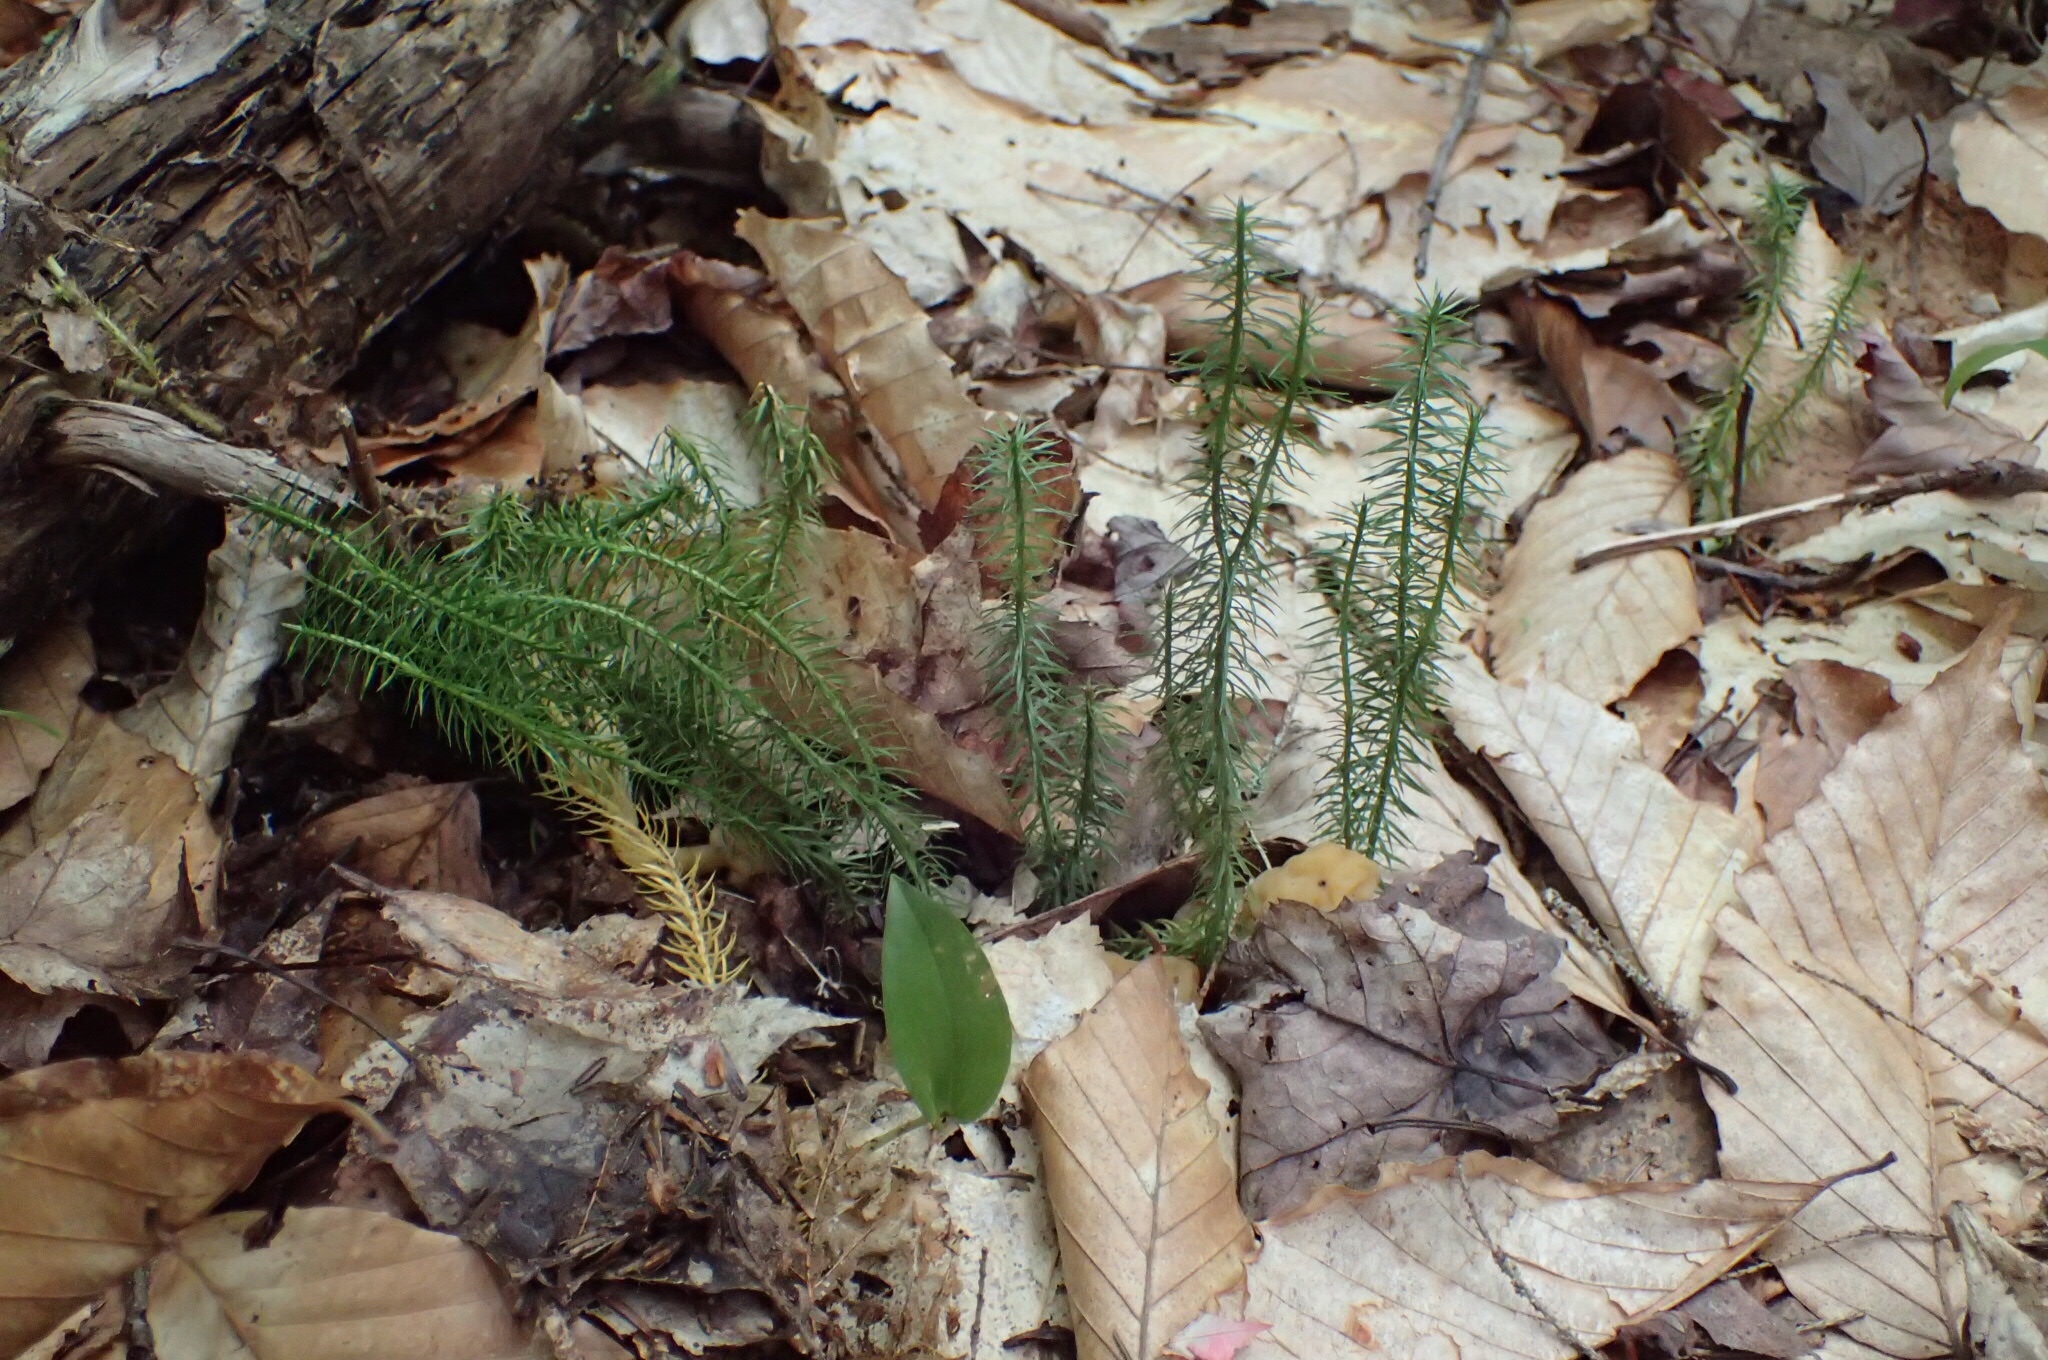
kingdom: Plantae
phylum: Tracheophyta
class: Lycopodiopsida
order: Lycopodiales
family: Lycopodiaceae
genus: Spinulum
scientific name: Spinulum annotinum
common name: Interrupted club-moss
